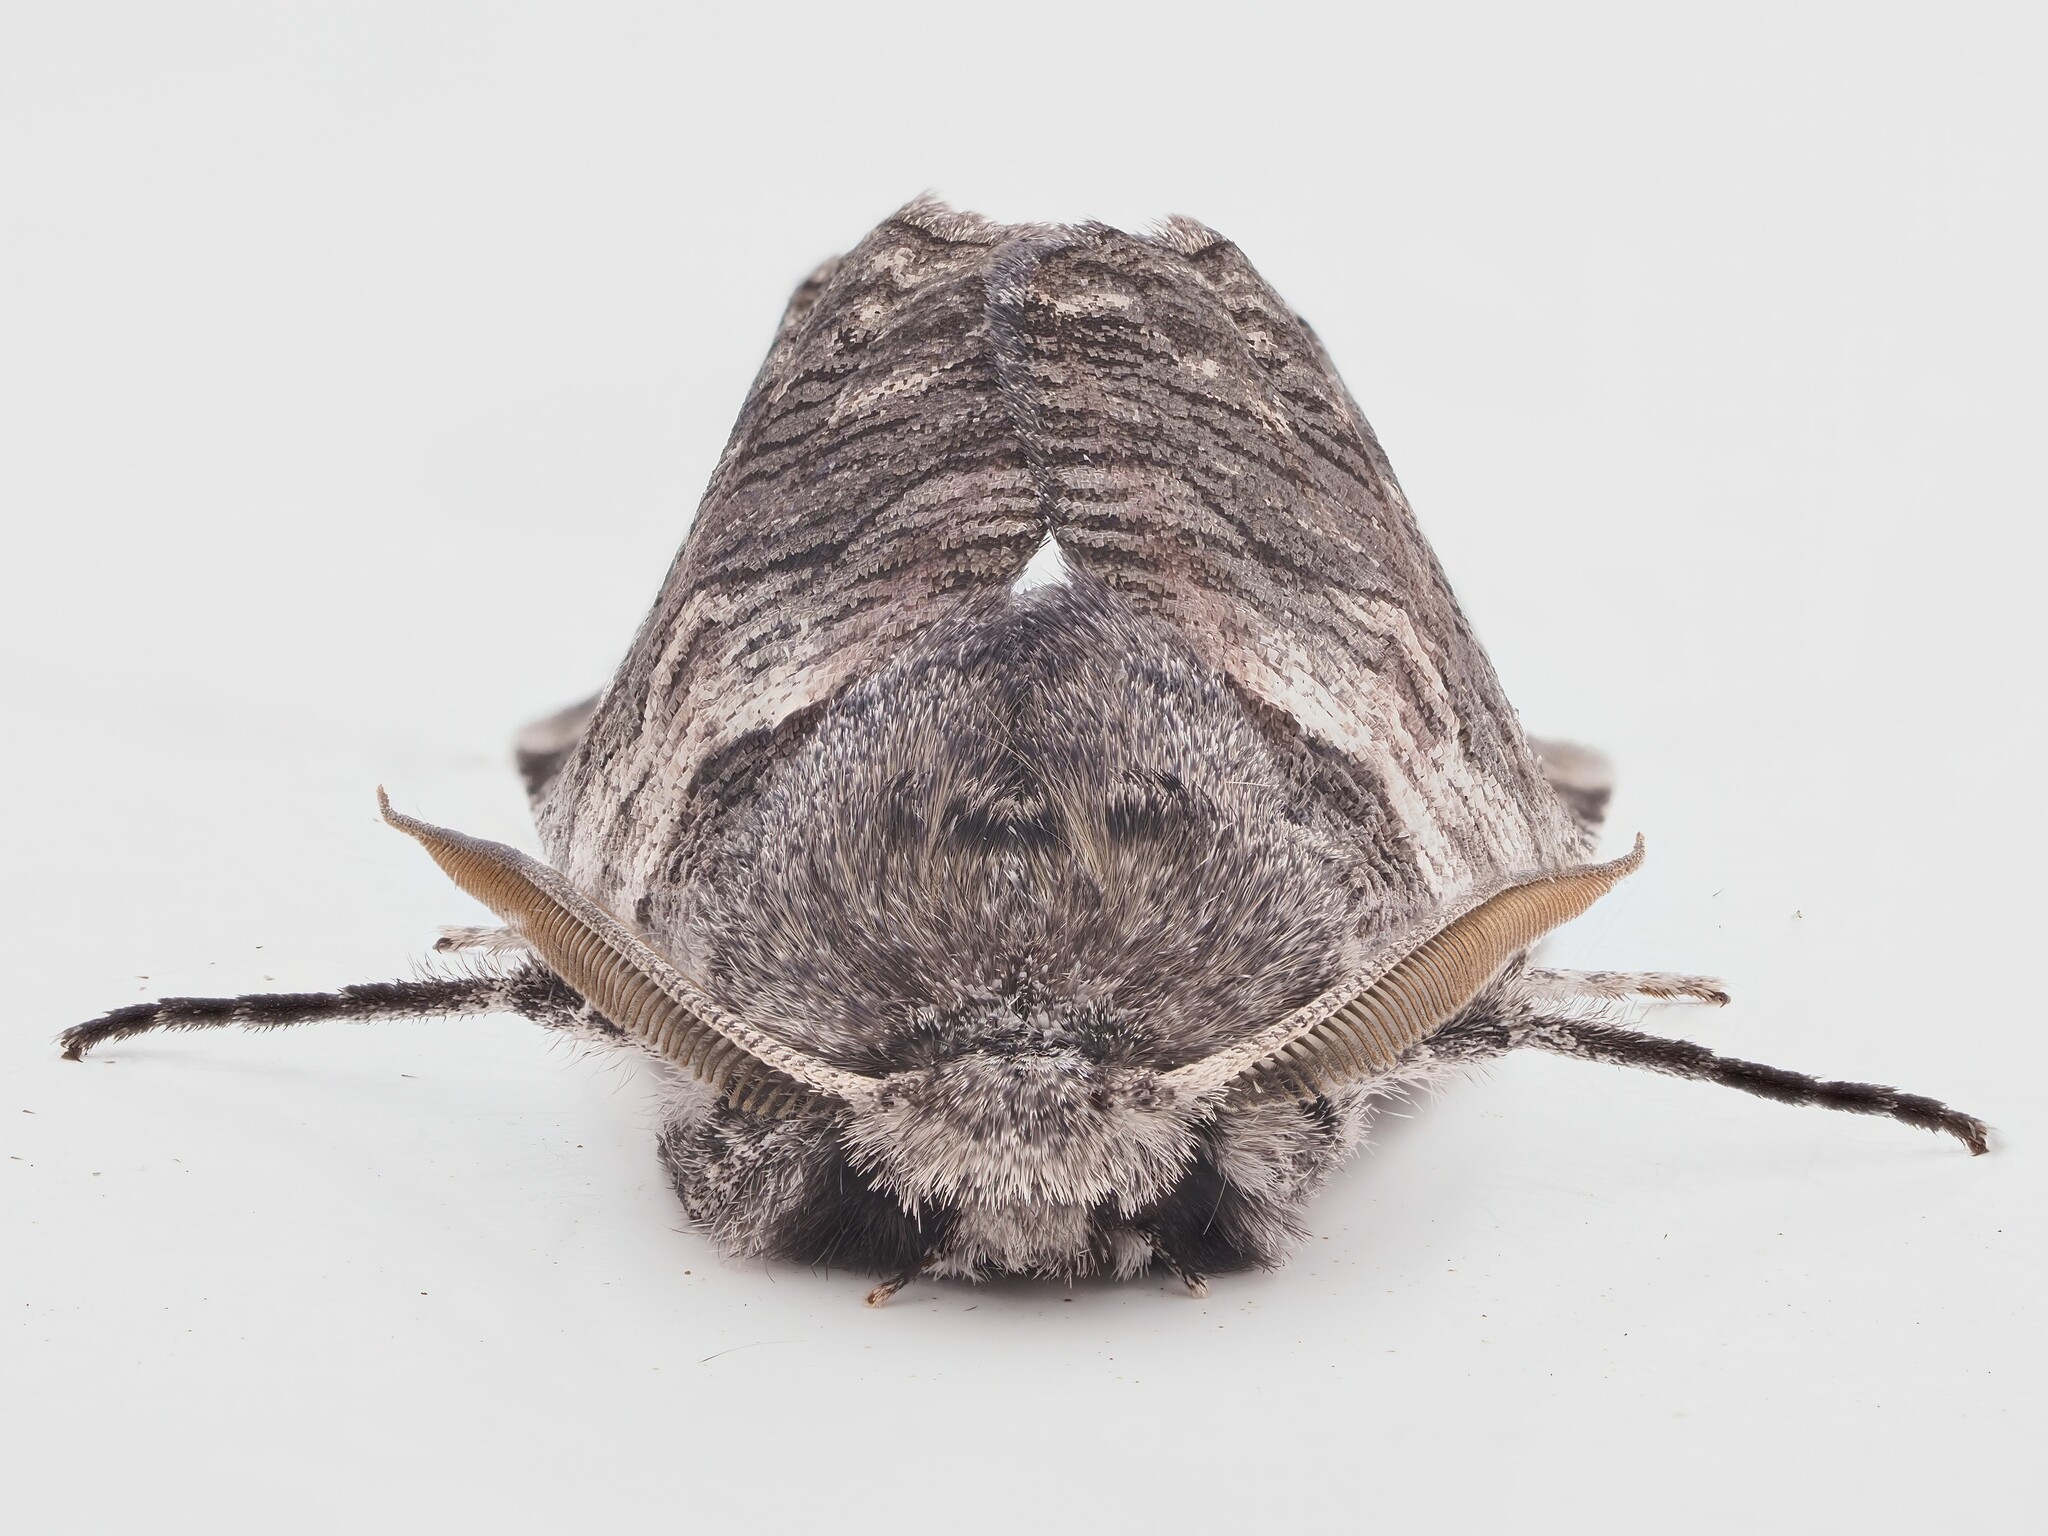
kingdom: Animalia
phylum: Arthropoda
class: Insecta
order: Lepidoptera
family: Geometridae
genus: Declana
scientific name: Declana
